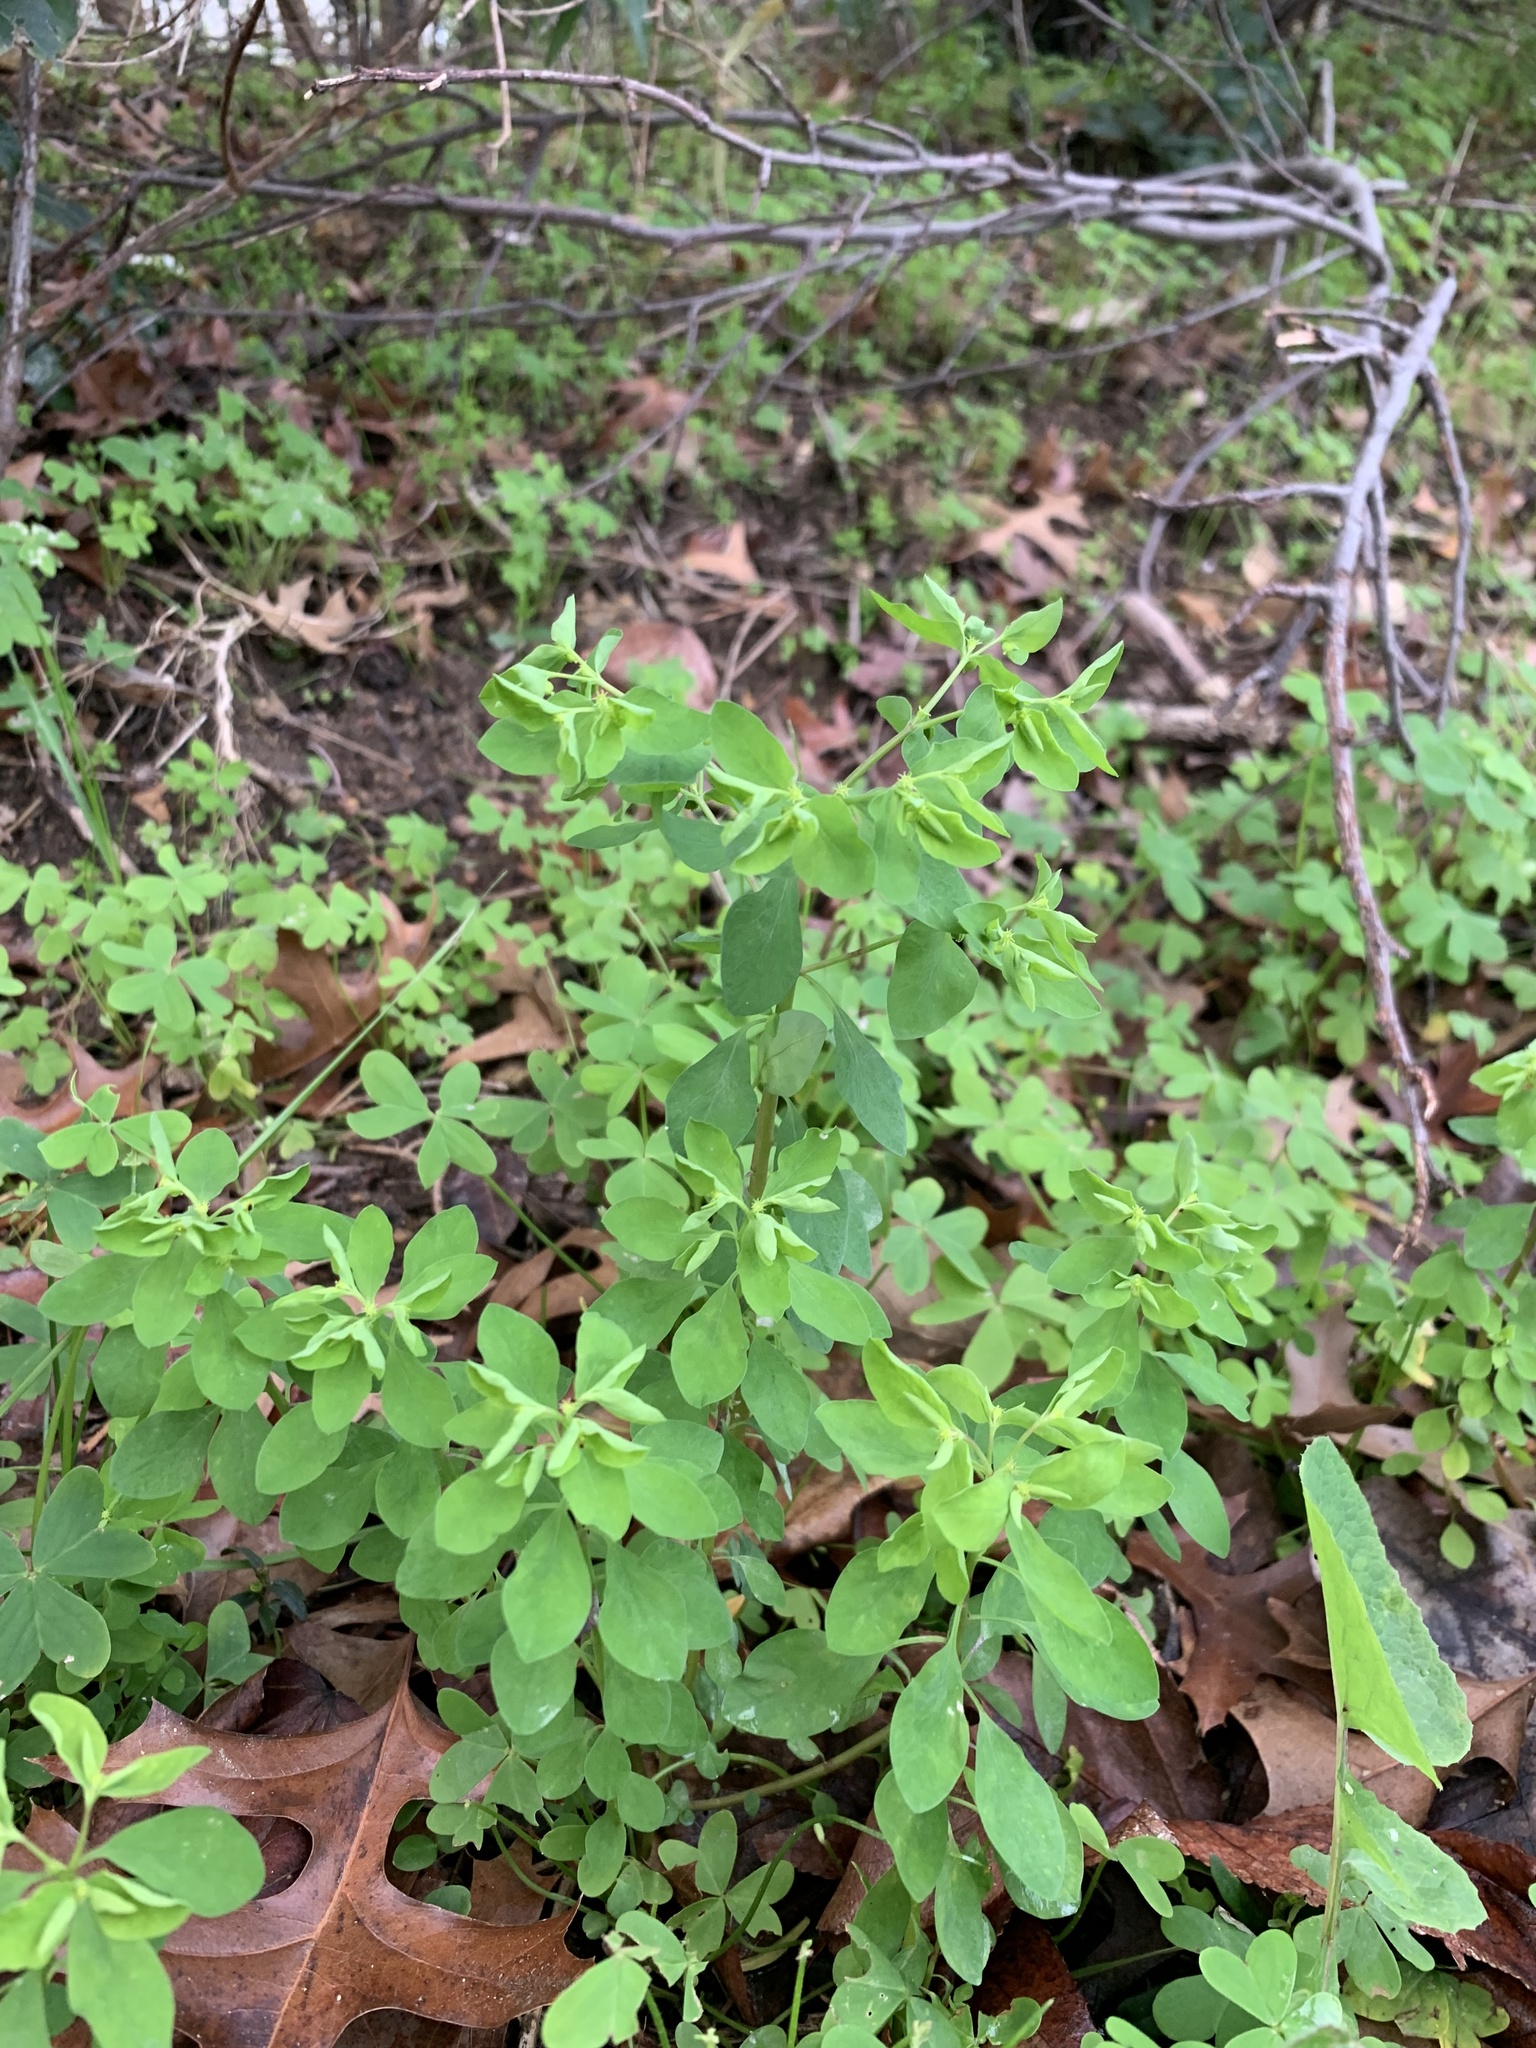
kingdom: Plantae
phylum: Tracheophyta
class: Magnoliopsida
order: Malpighiales
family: Euphorbiaceae
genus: Euphorbia
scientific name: Euphorbia peplus
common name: Petty spurge
